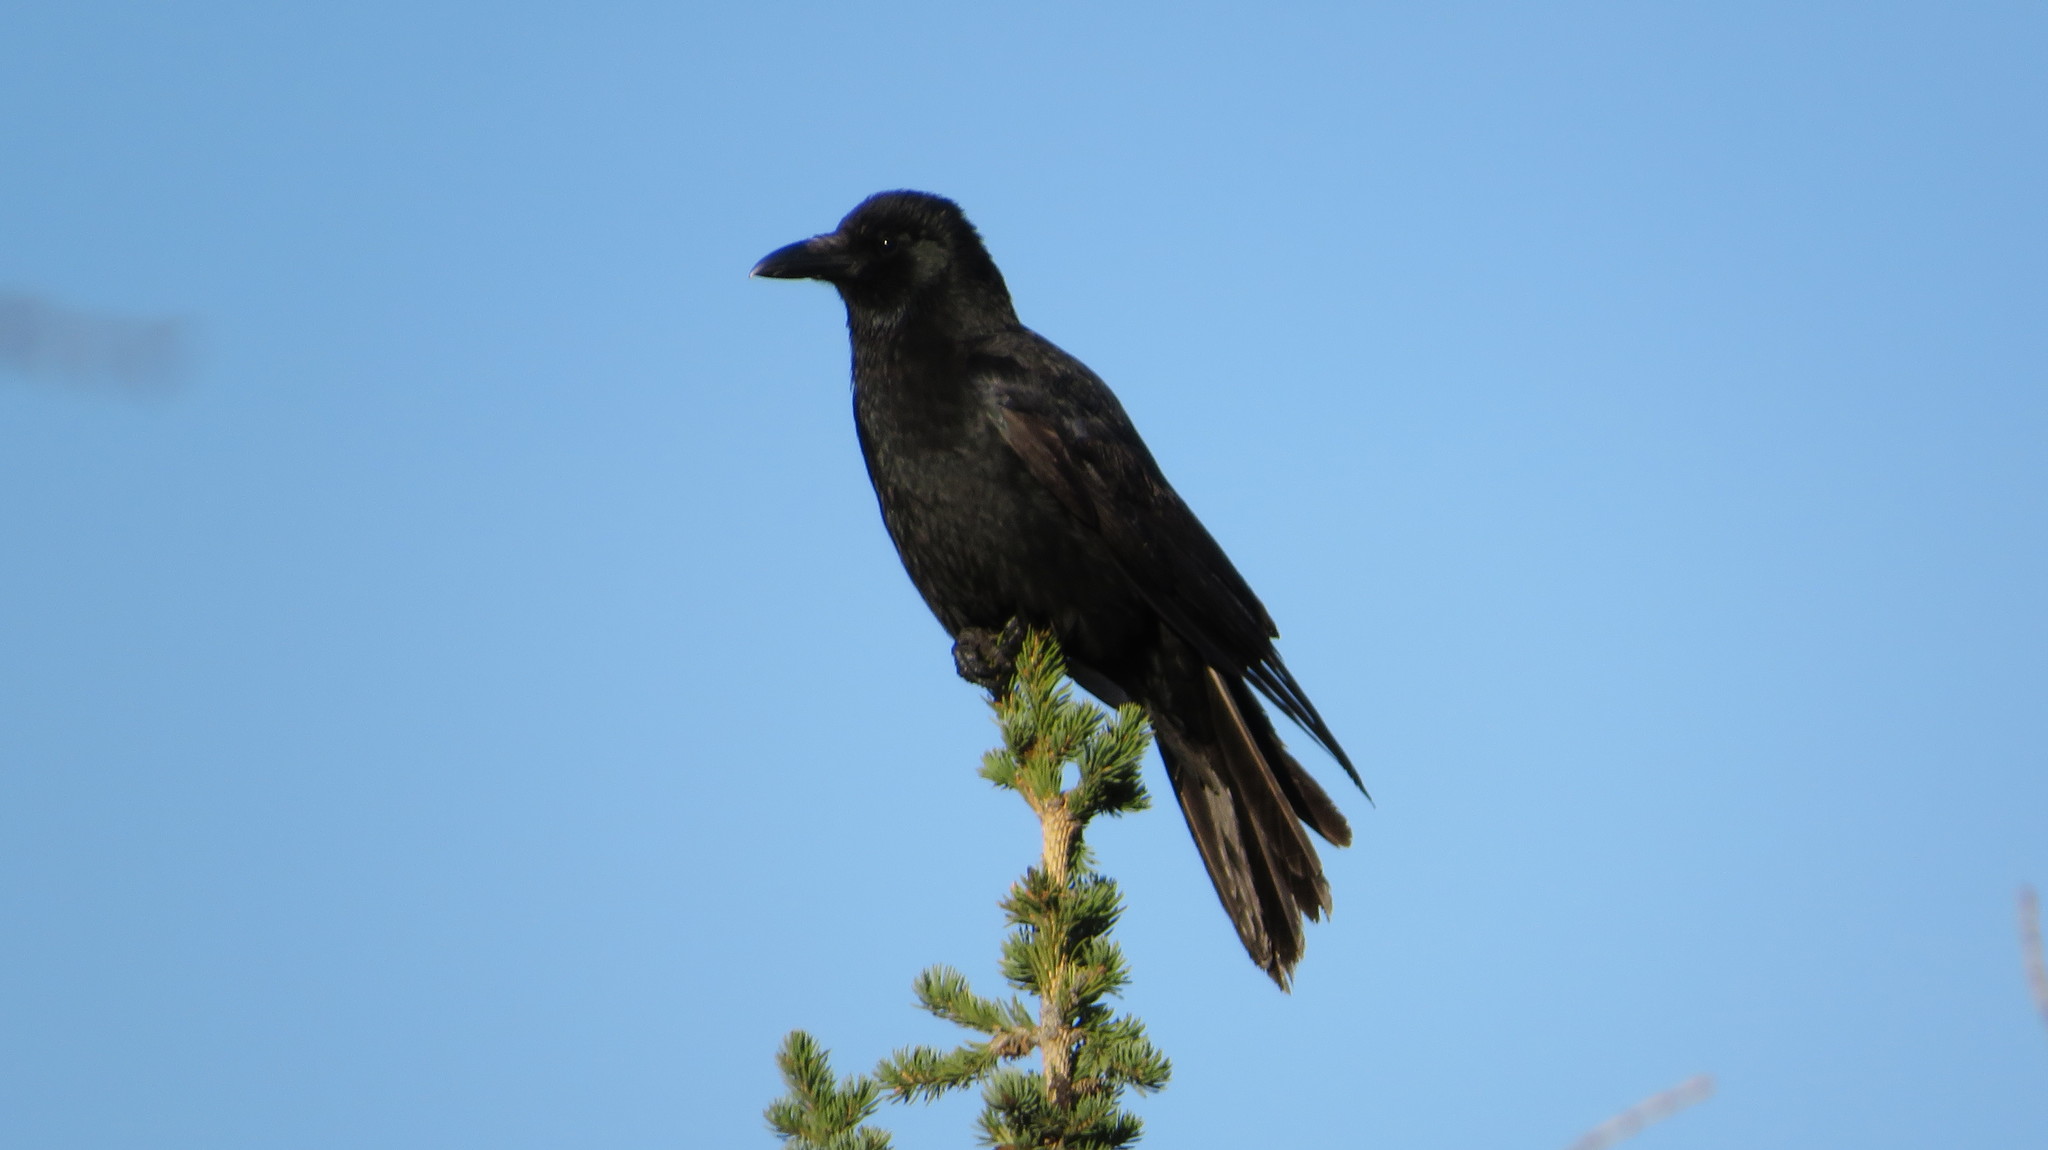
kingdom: Animalia
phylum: Chordata
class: Aves
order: Passeriformes
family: Corvidae
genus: Corvus
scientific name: Corvus corone
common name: Carrion crow
